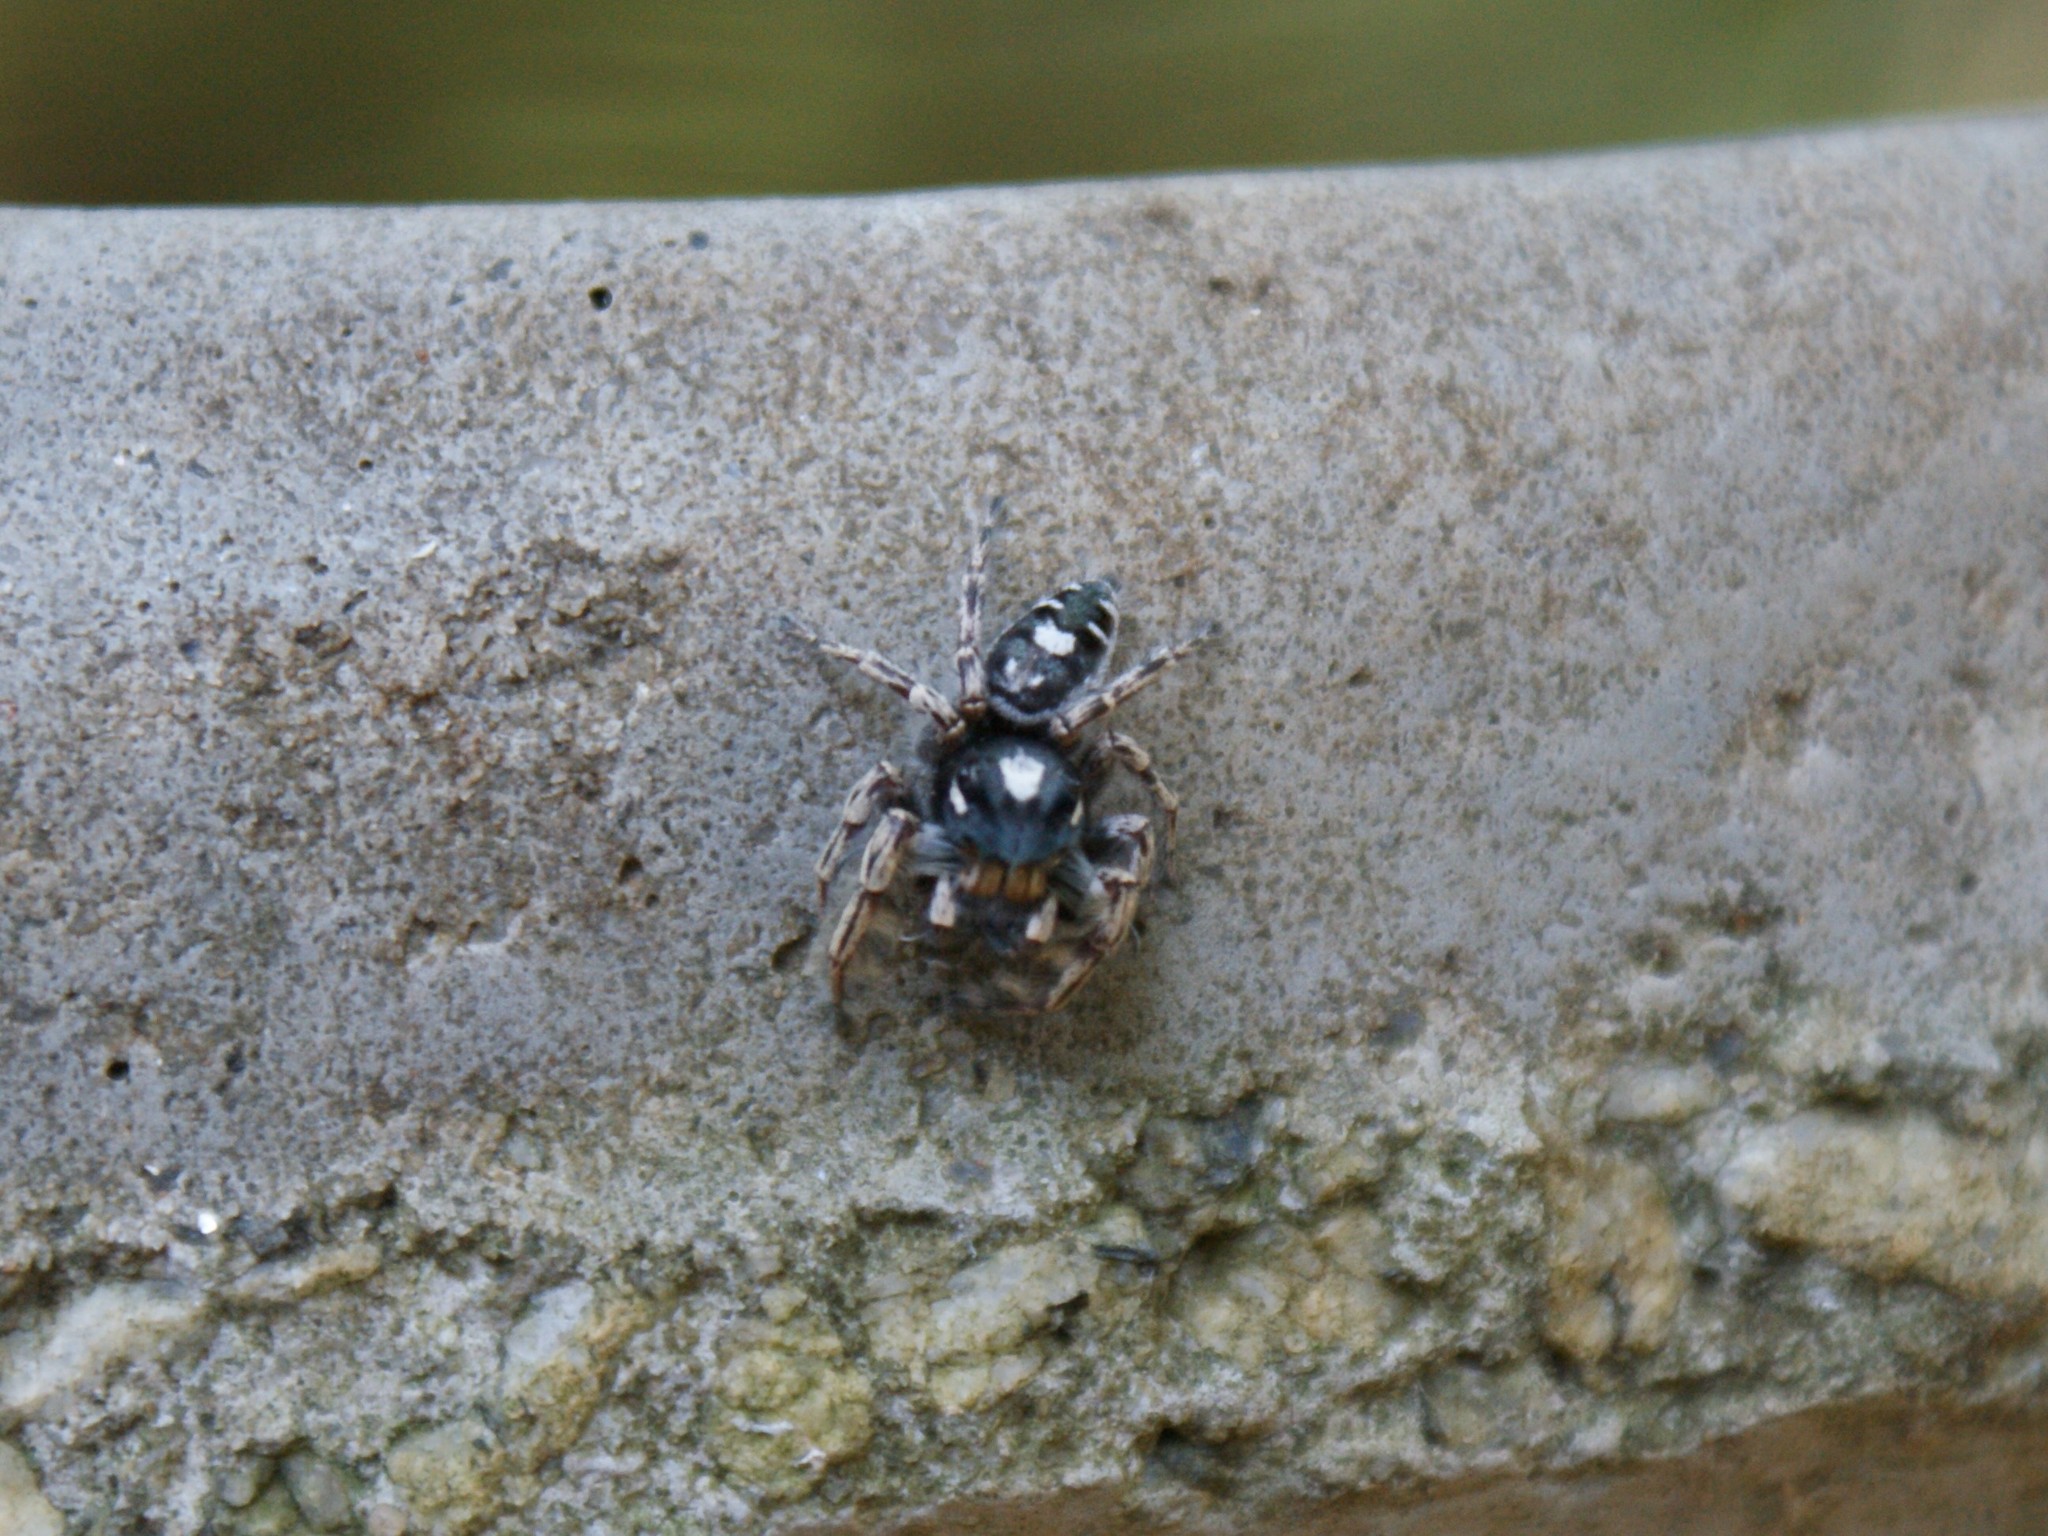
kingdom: Animalia
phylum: Arthropoda
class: Arachnida
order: Araneae
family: Salticidae
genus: Phidippus
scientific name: Phidippus putnami
